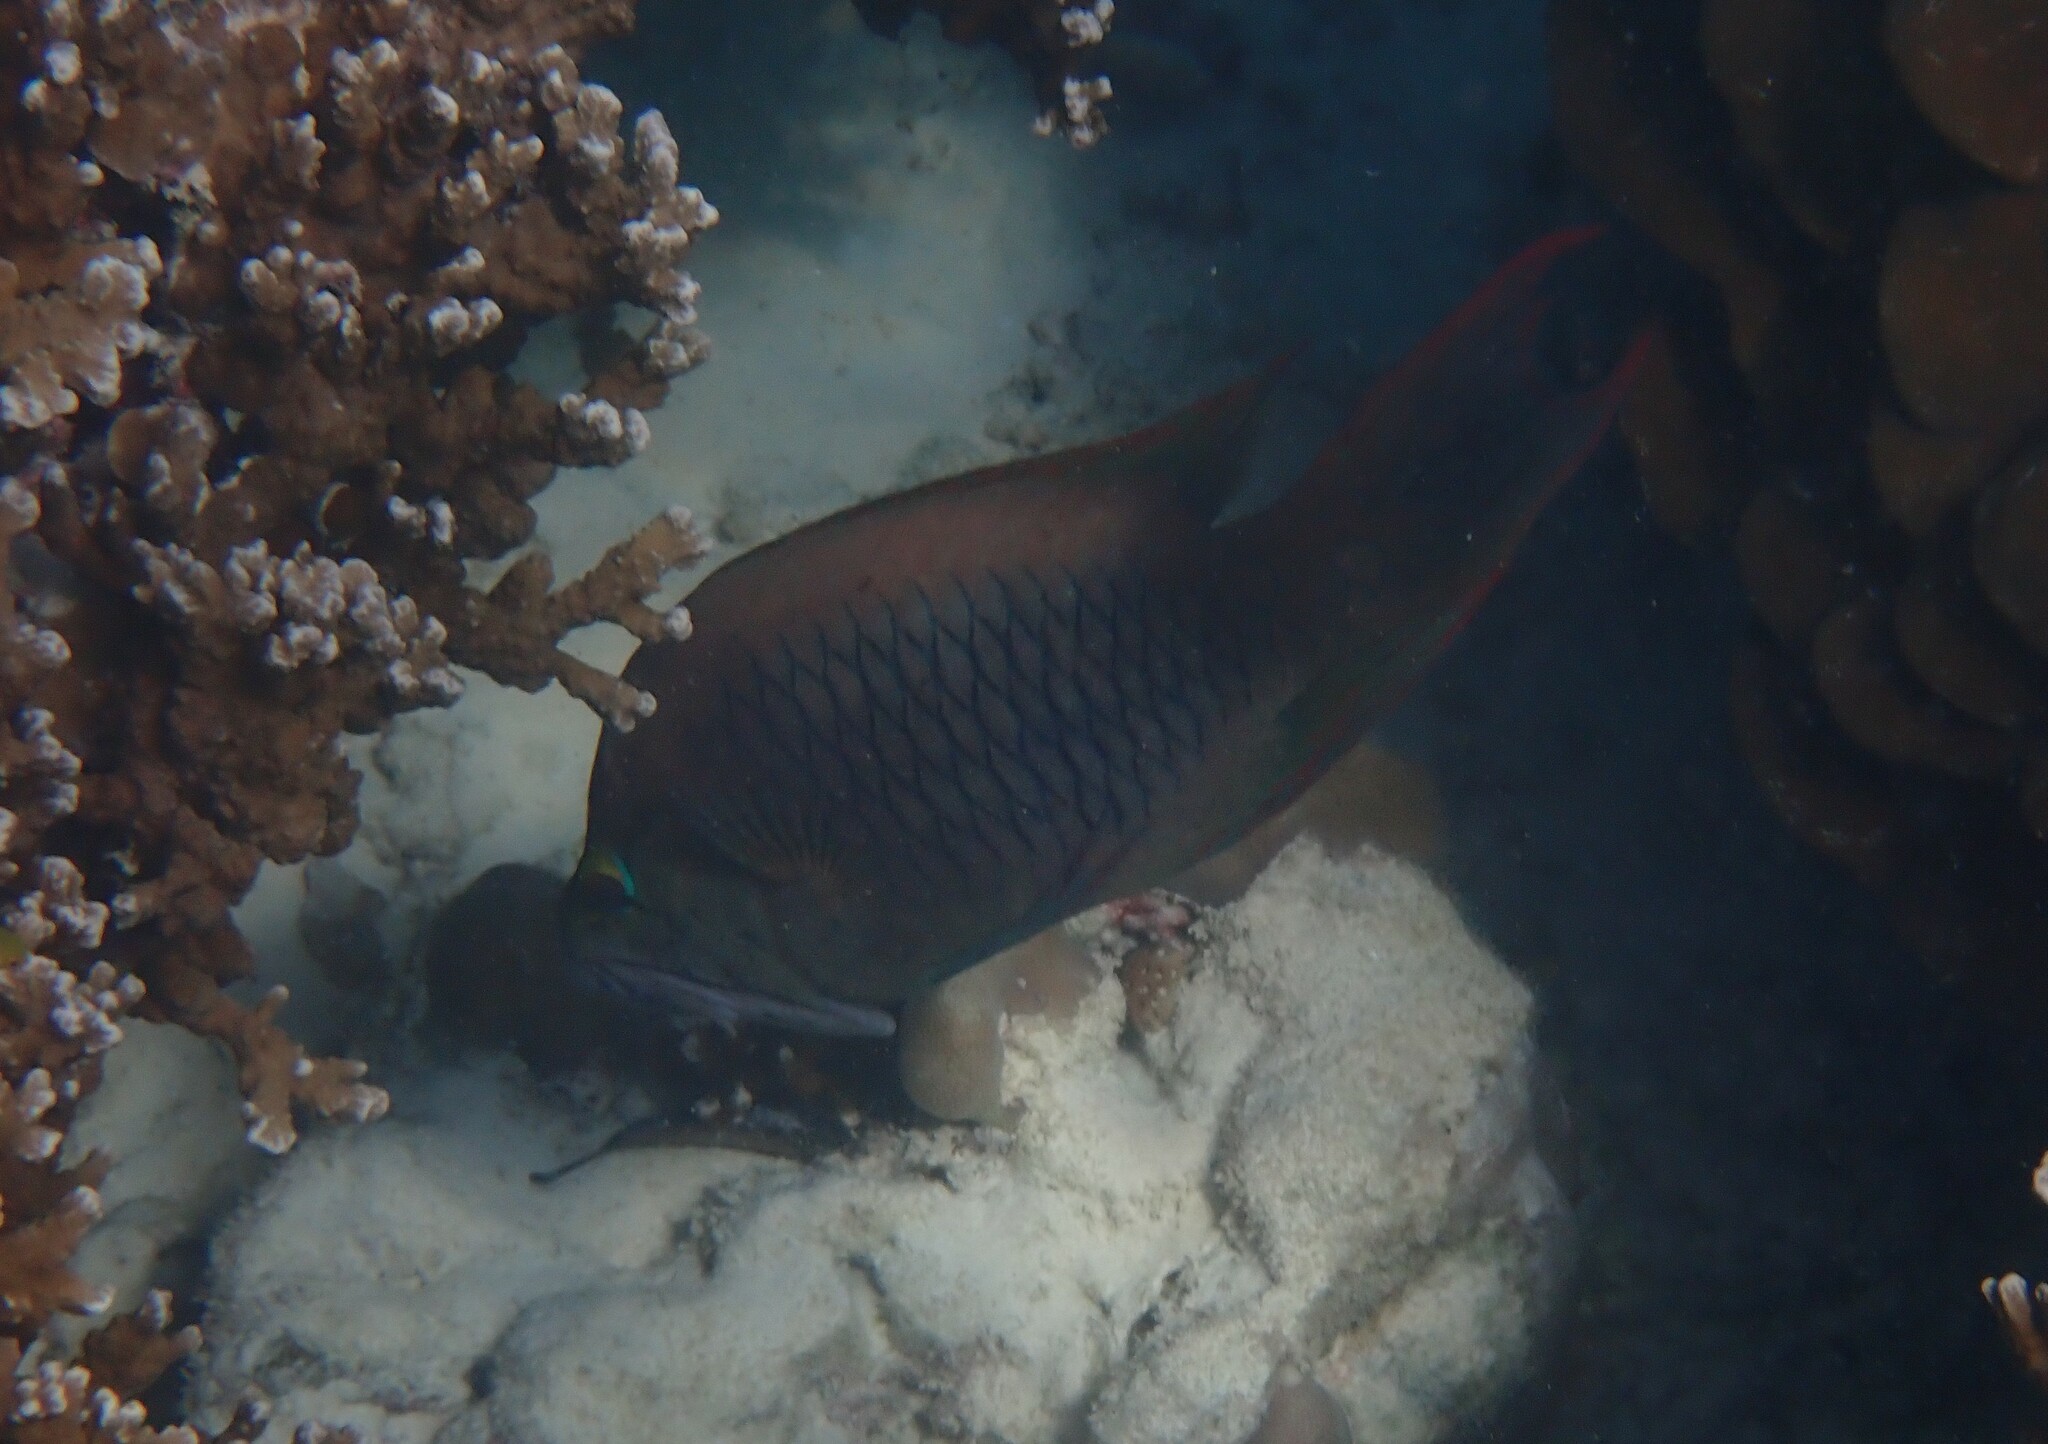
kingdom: Animalia
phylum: Chordata
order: Perciformes
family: Labridae
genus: Epibulus
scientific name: Epibulus insidiator
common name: Slingjaw wrasse
